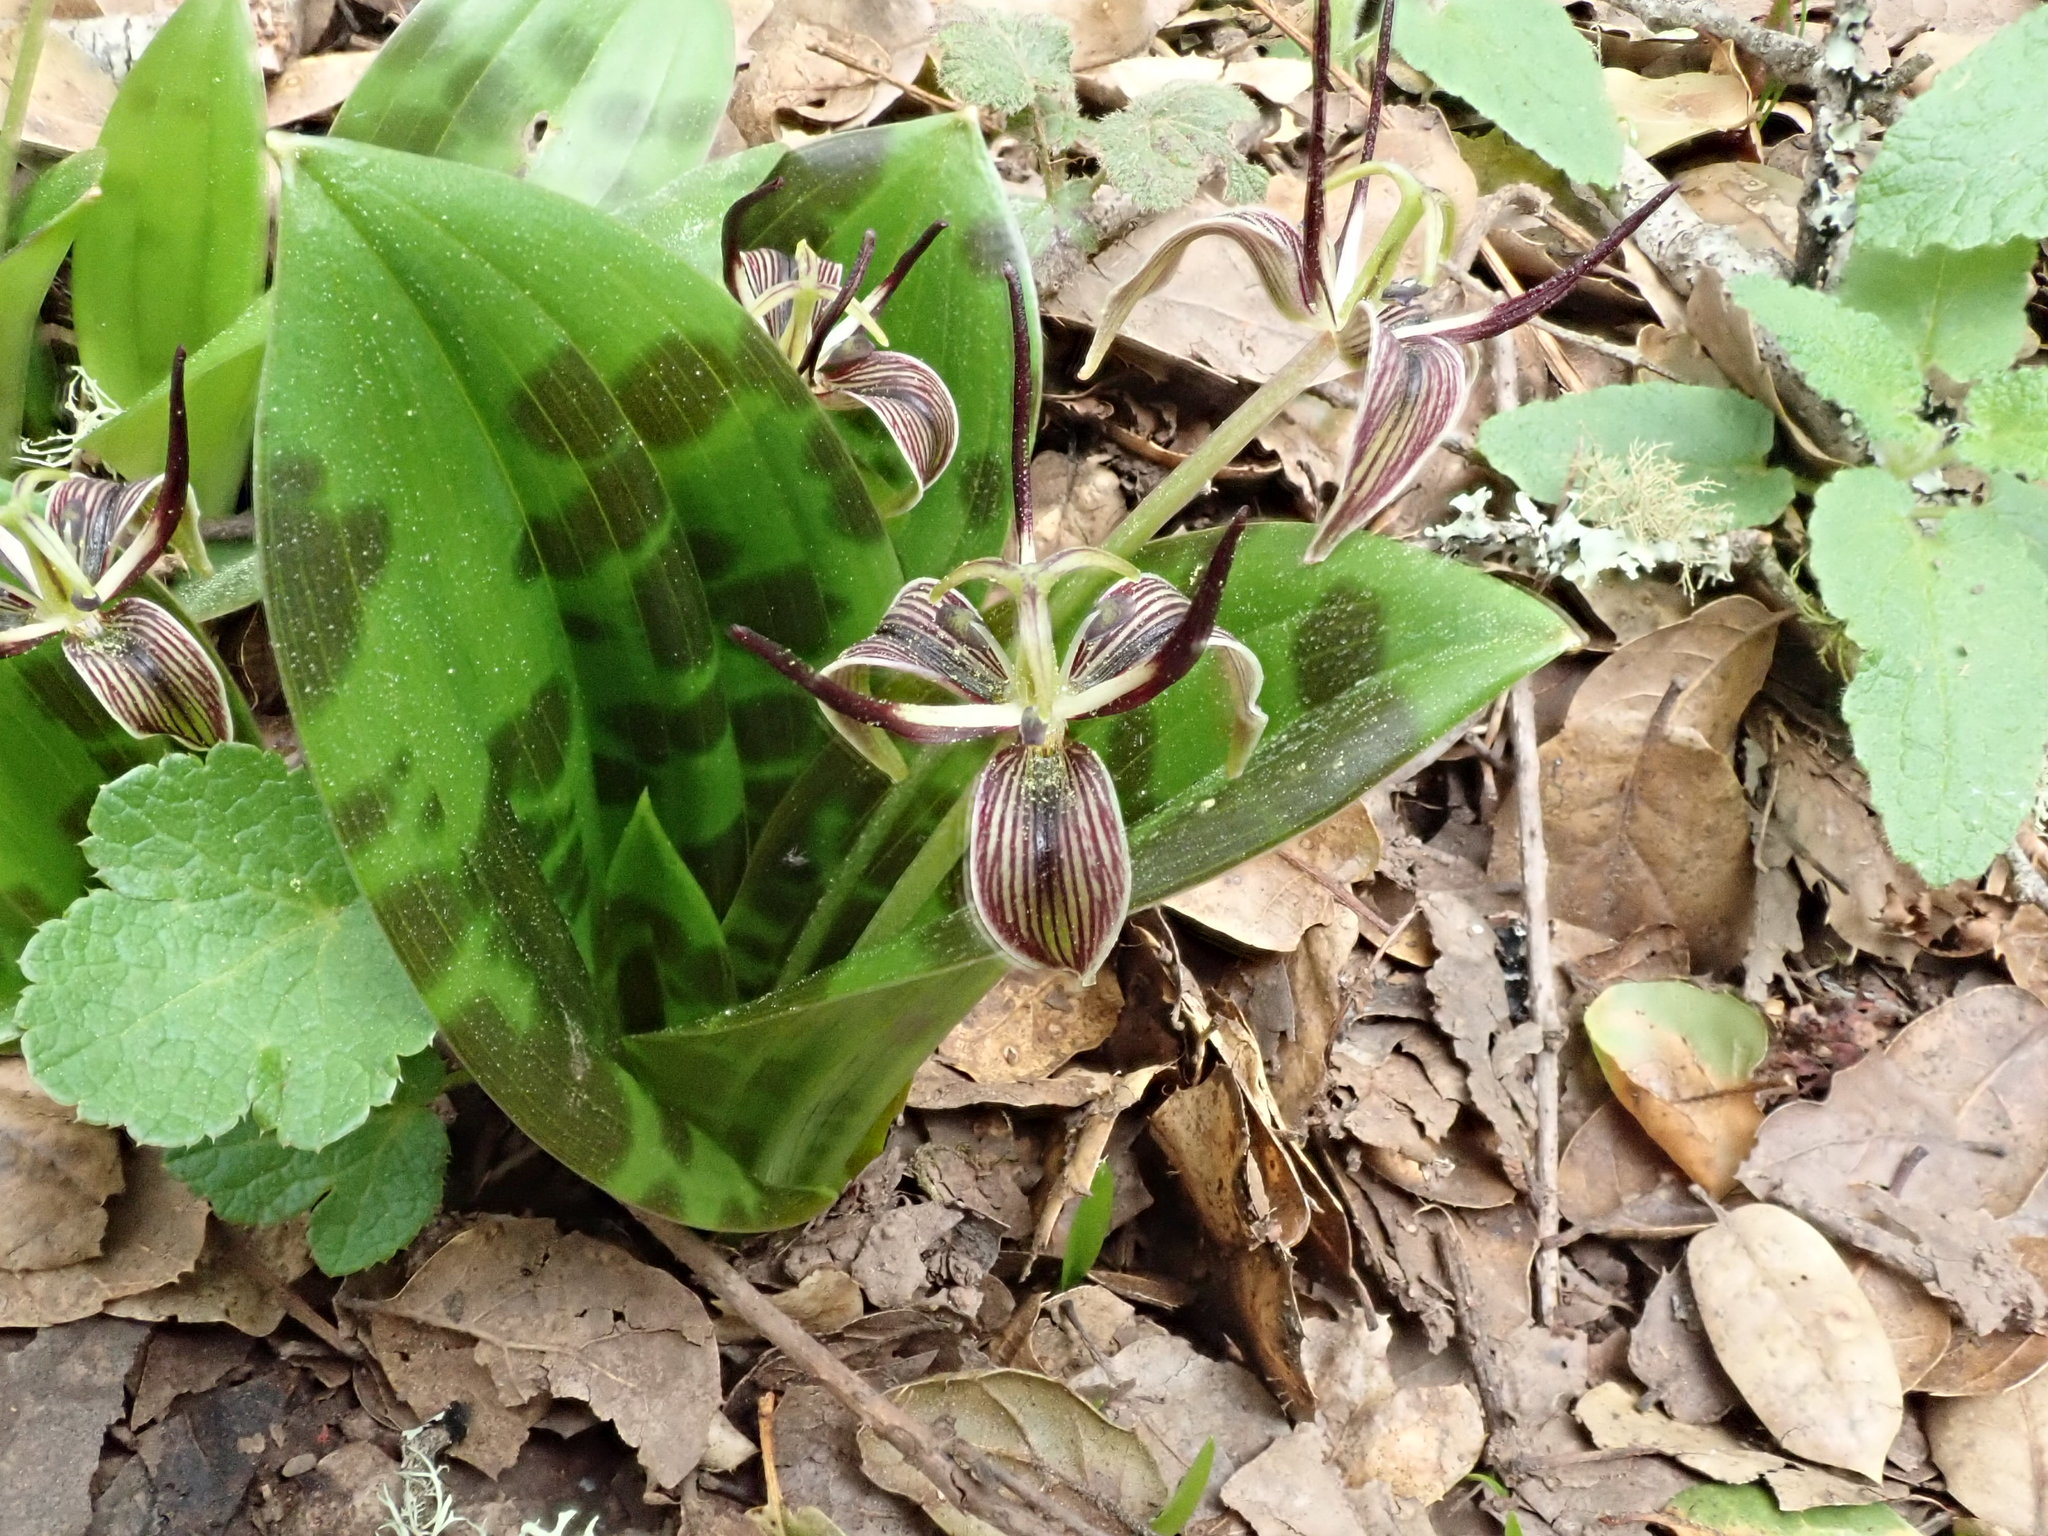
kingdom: Plantae
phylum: Tracheophyta
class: Liliopsida
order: Liliales
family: Liliaceae
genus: Scoliopus
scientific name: Scoliopus bigelovii
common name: Foetid adder's-tongue
